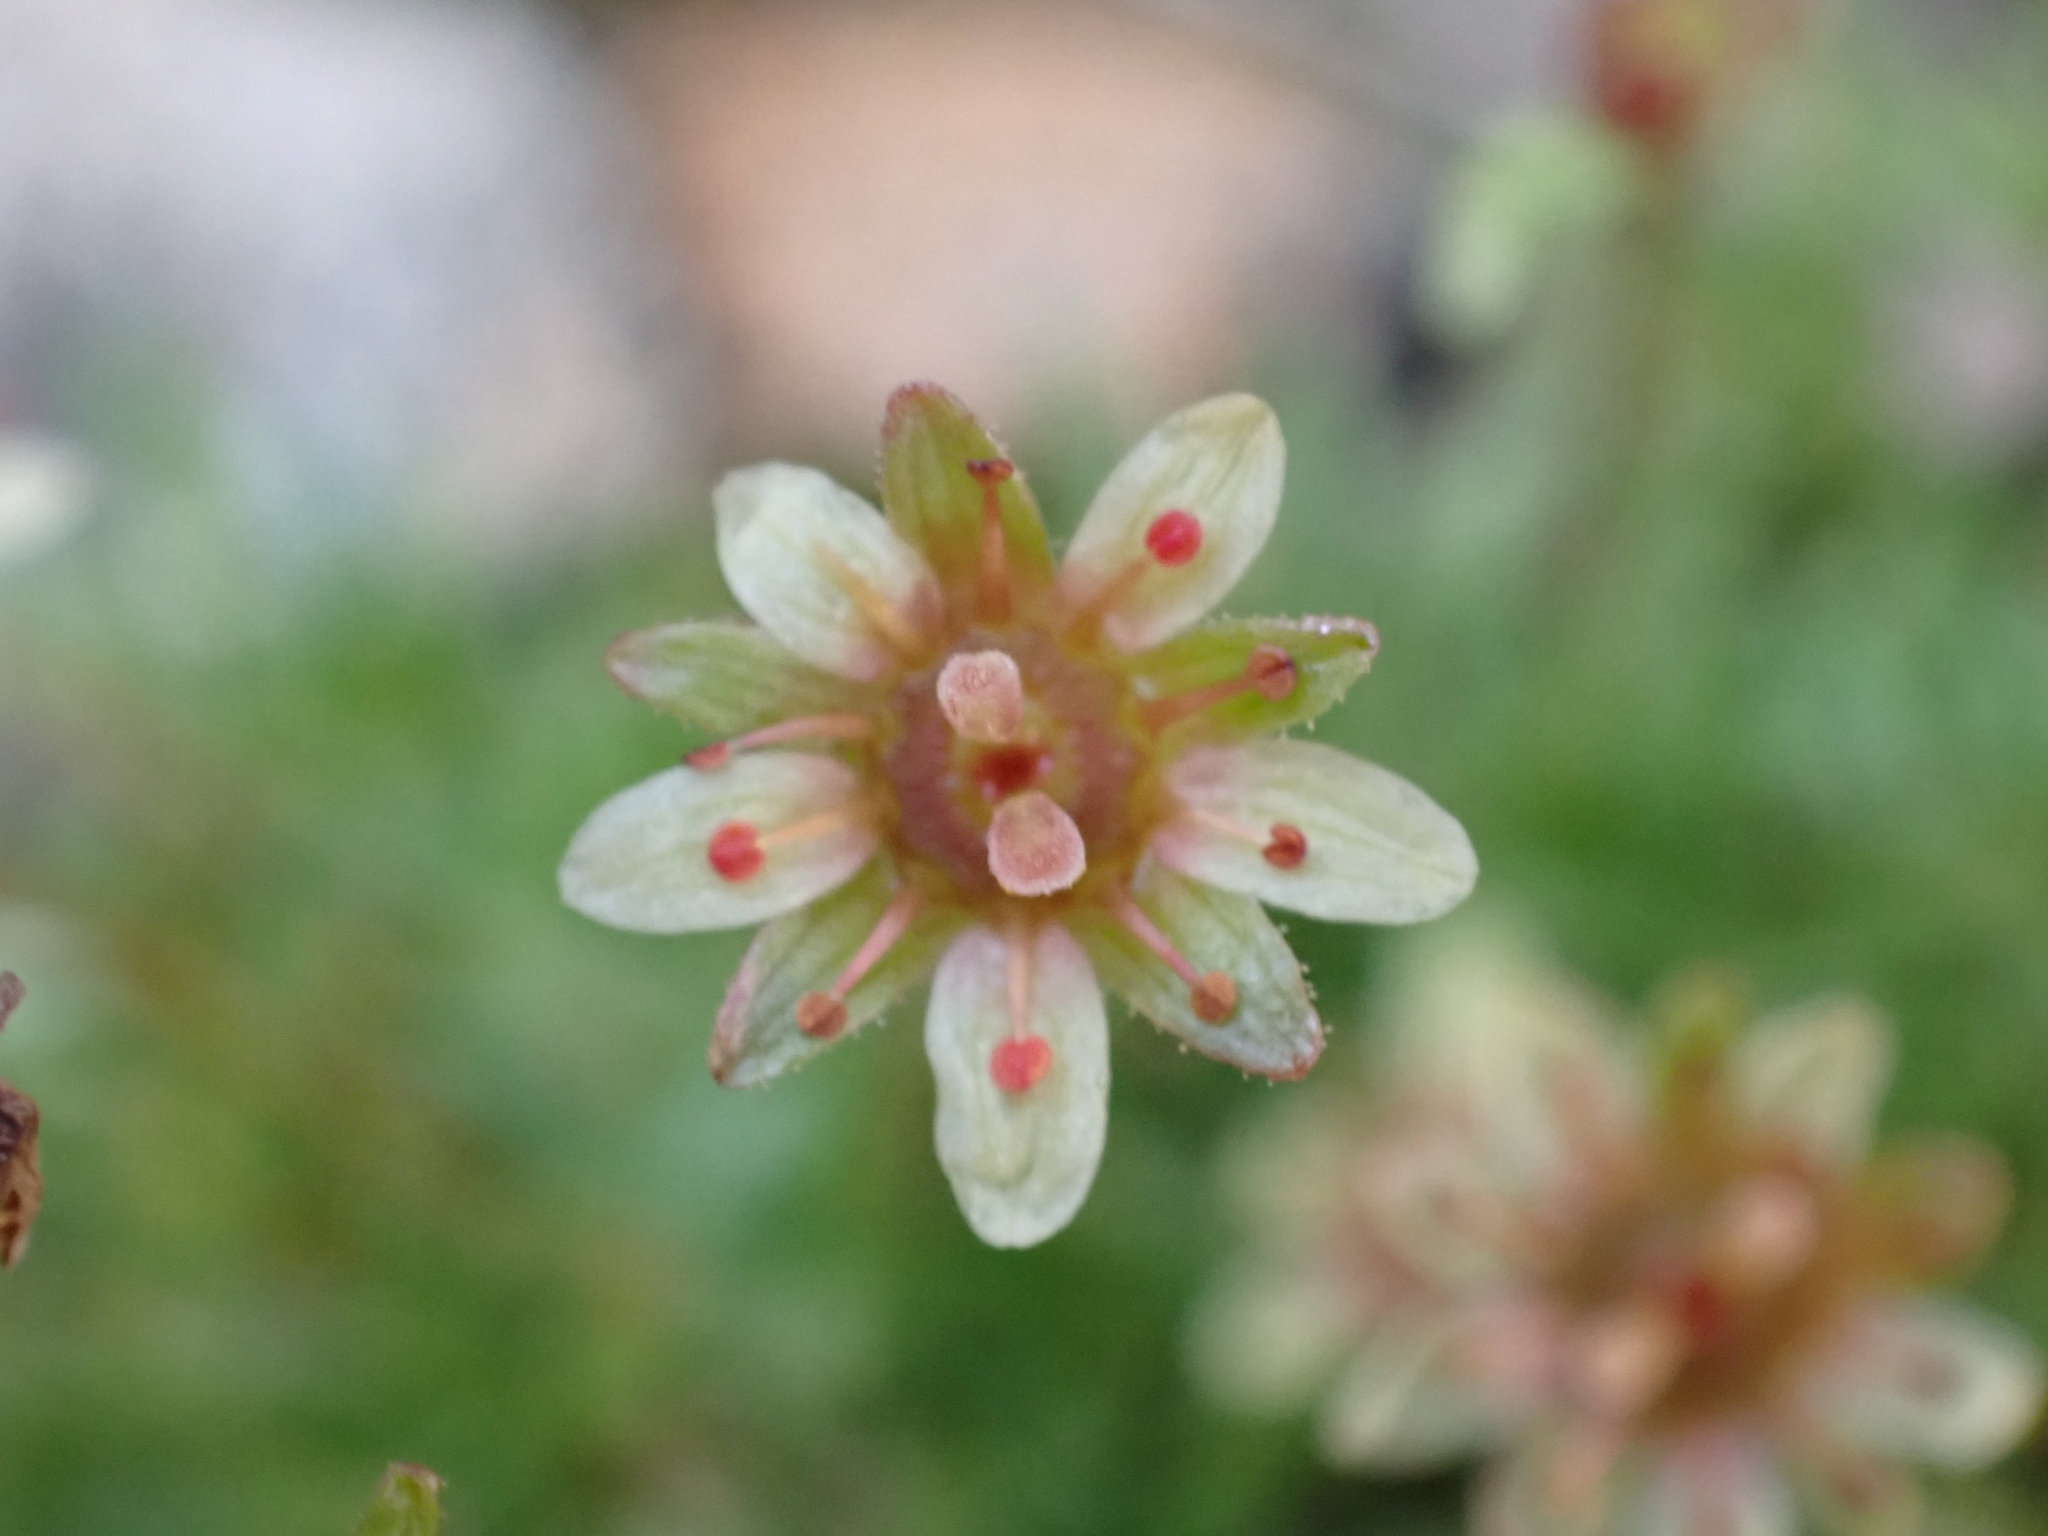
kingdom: Plantae
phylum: Tracheophyta
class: Magnoliopsida
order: Saxifragales
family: Saxifragaceae
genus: Saxifraga
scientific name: Saxifraga moschata
